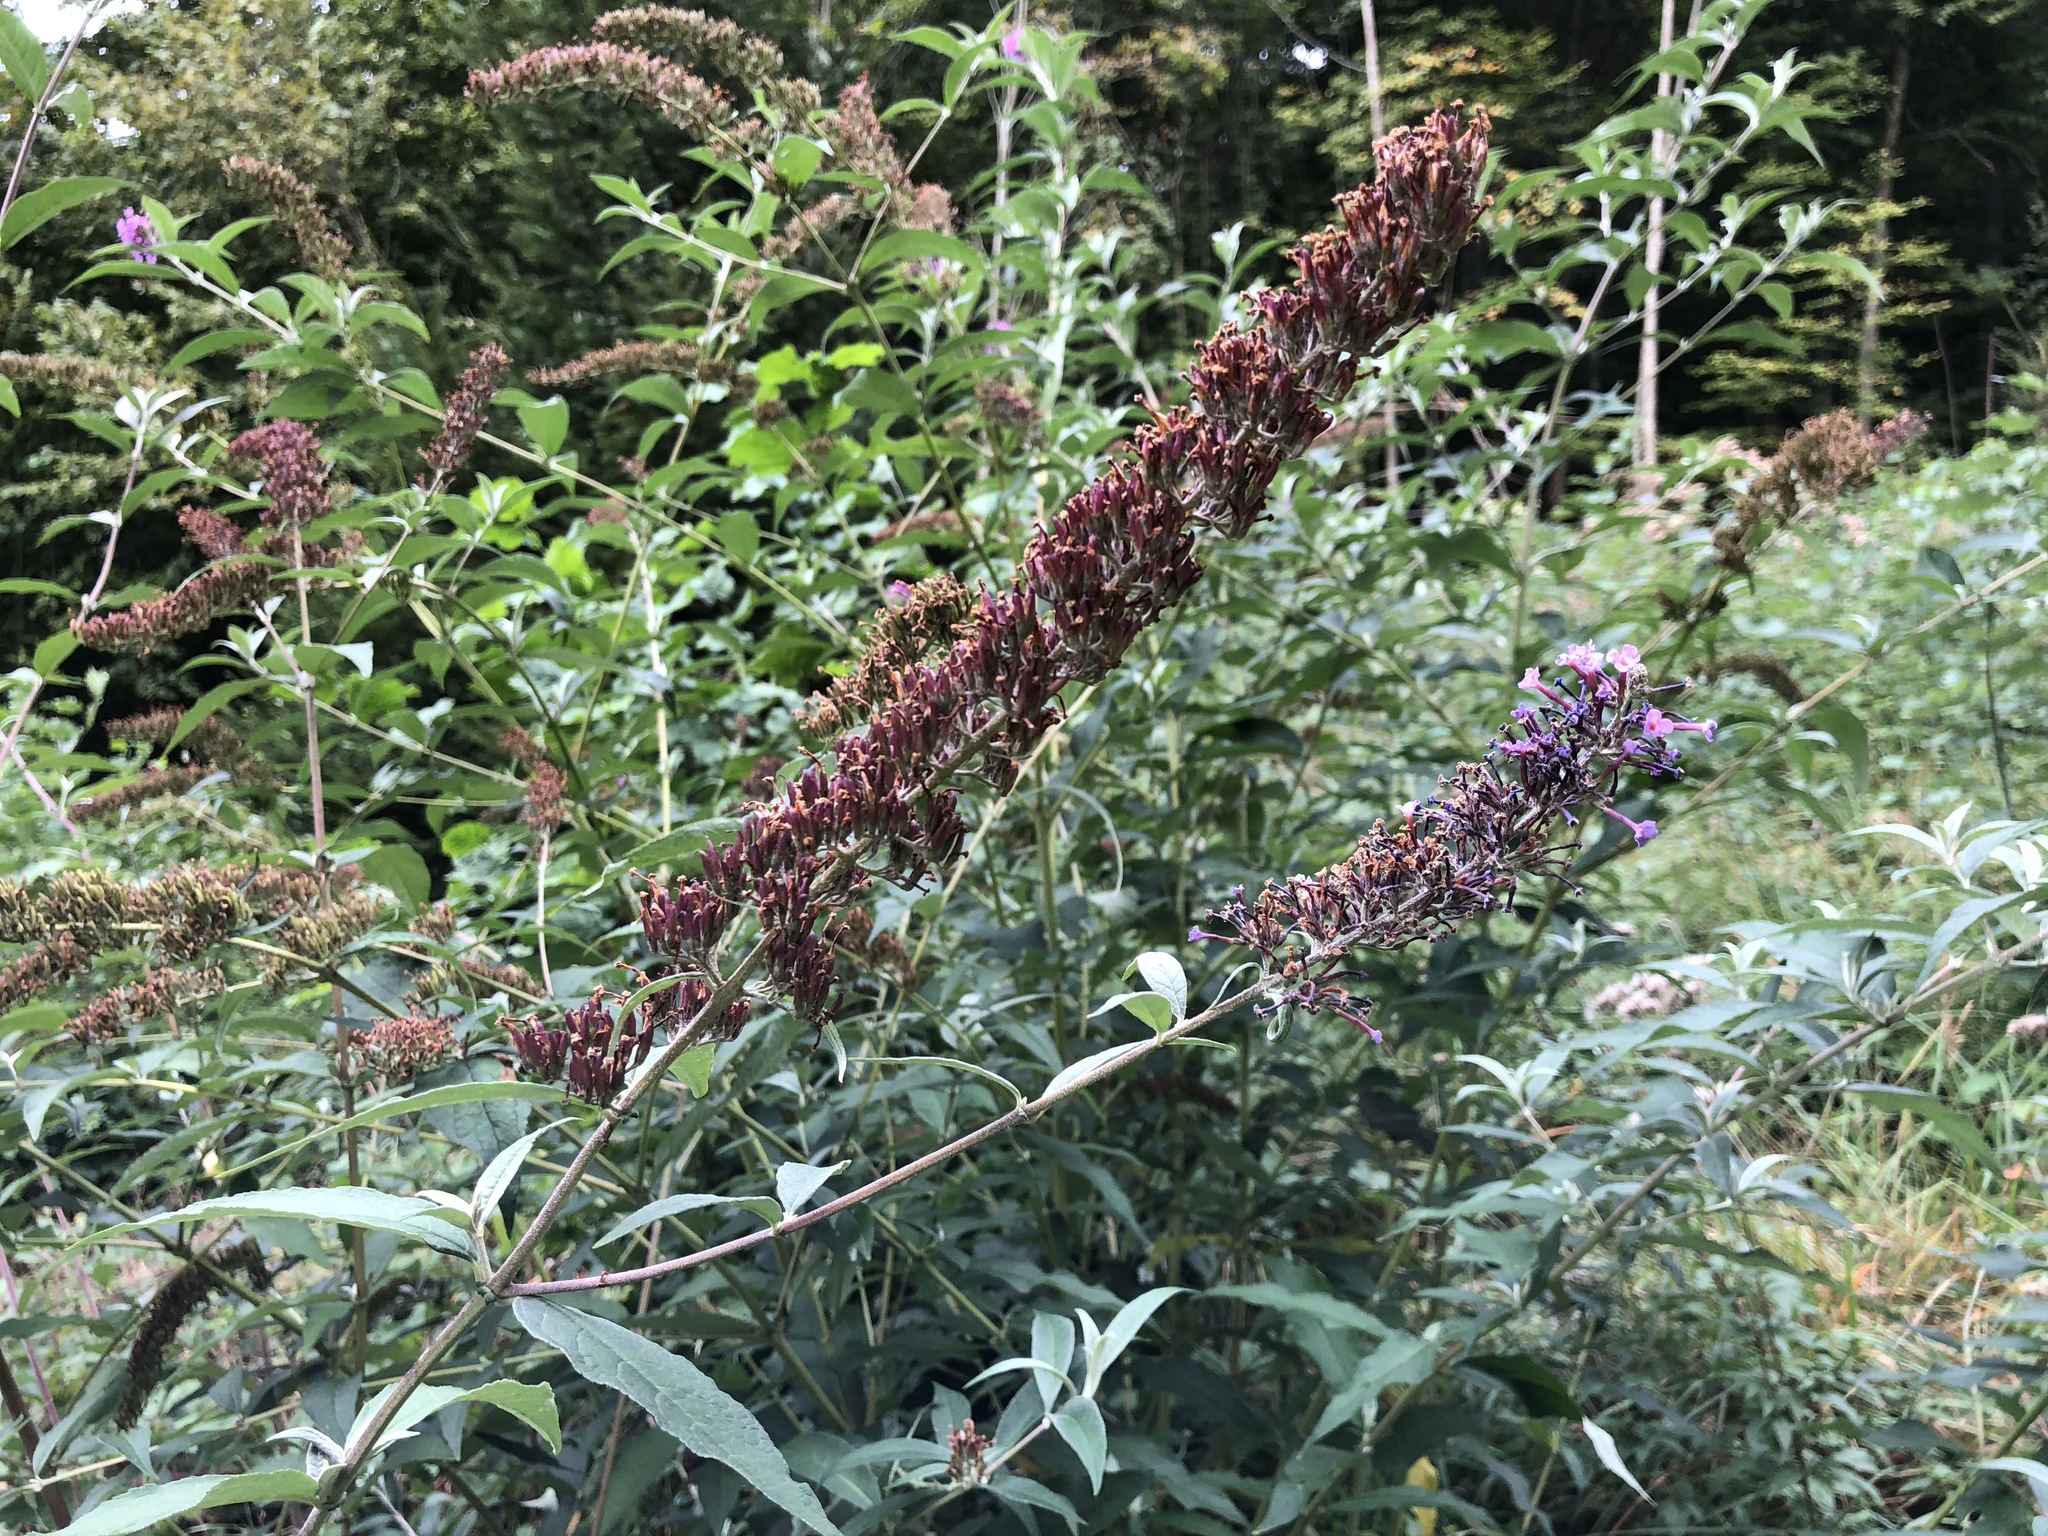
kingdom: Plantae
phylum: Tracheophyta
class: Magnoliopsida
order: Lamiales
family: Scrophulariaceae
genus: Buddleja
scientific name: Buddleja davidii
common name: Butterfly-bush
